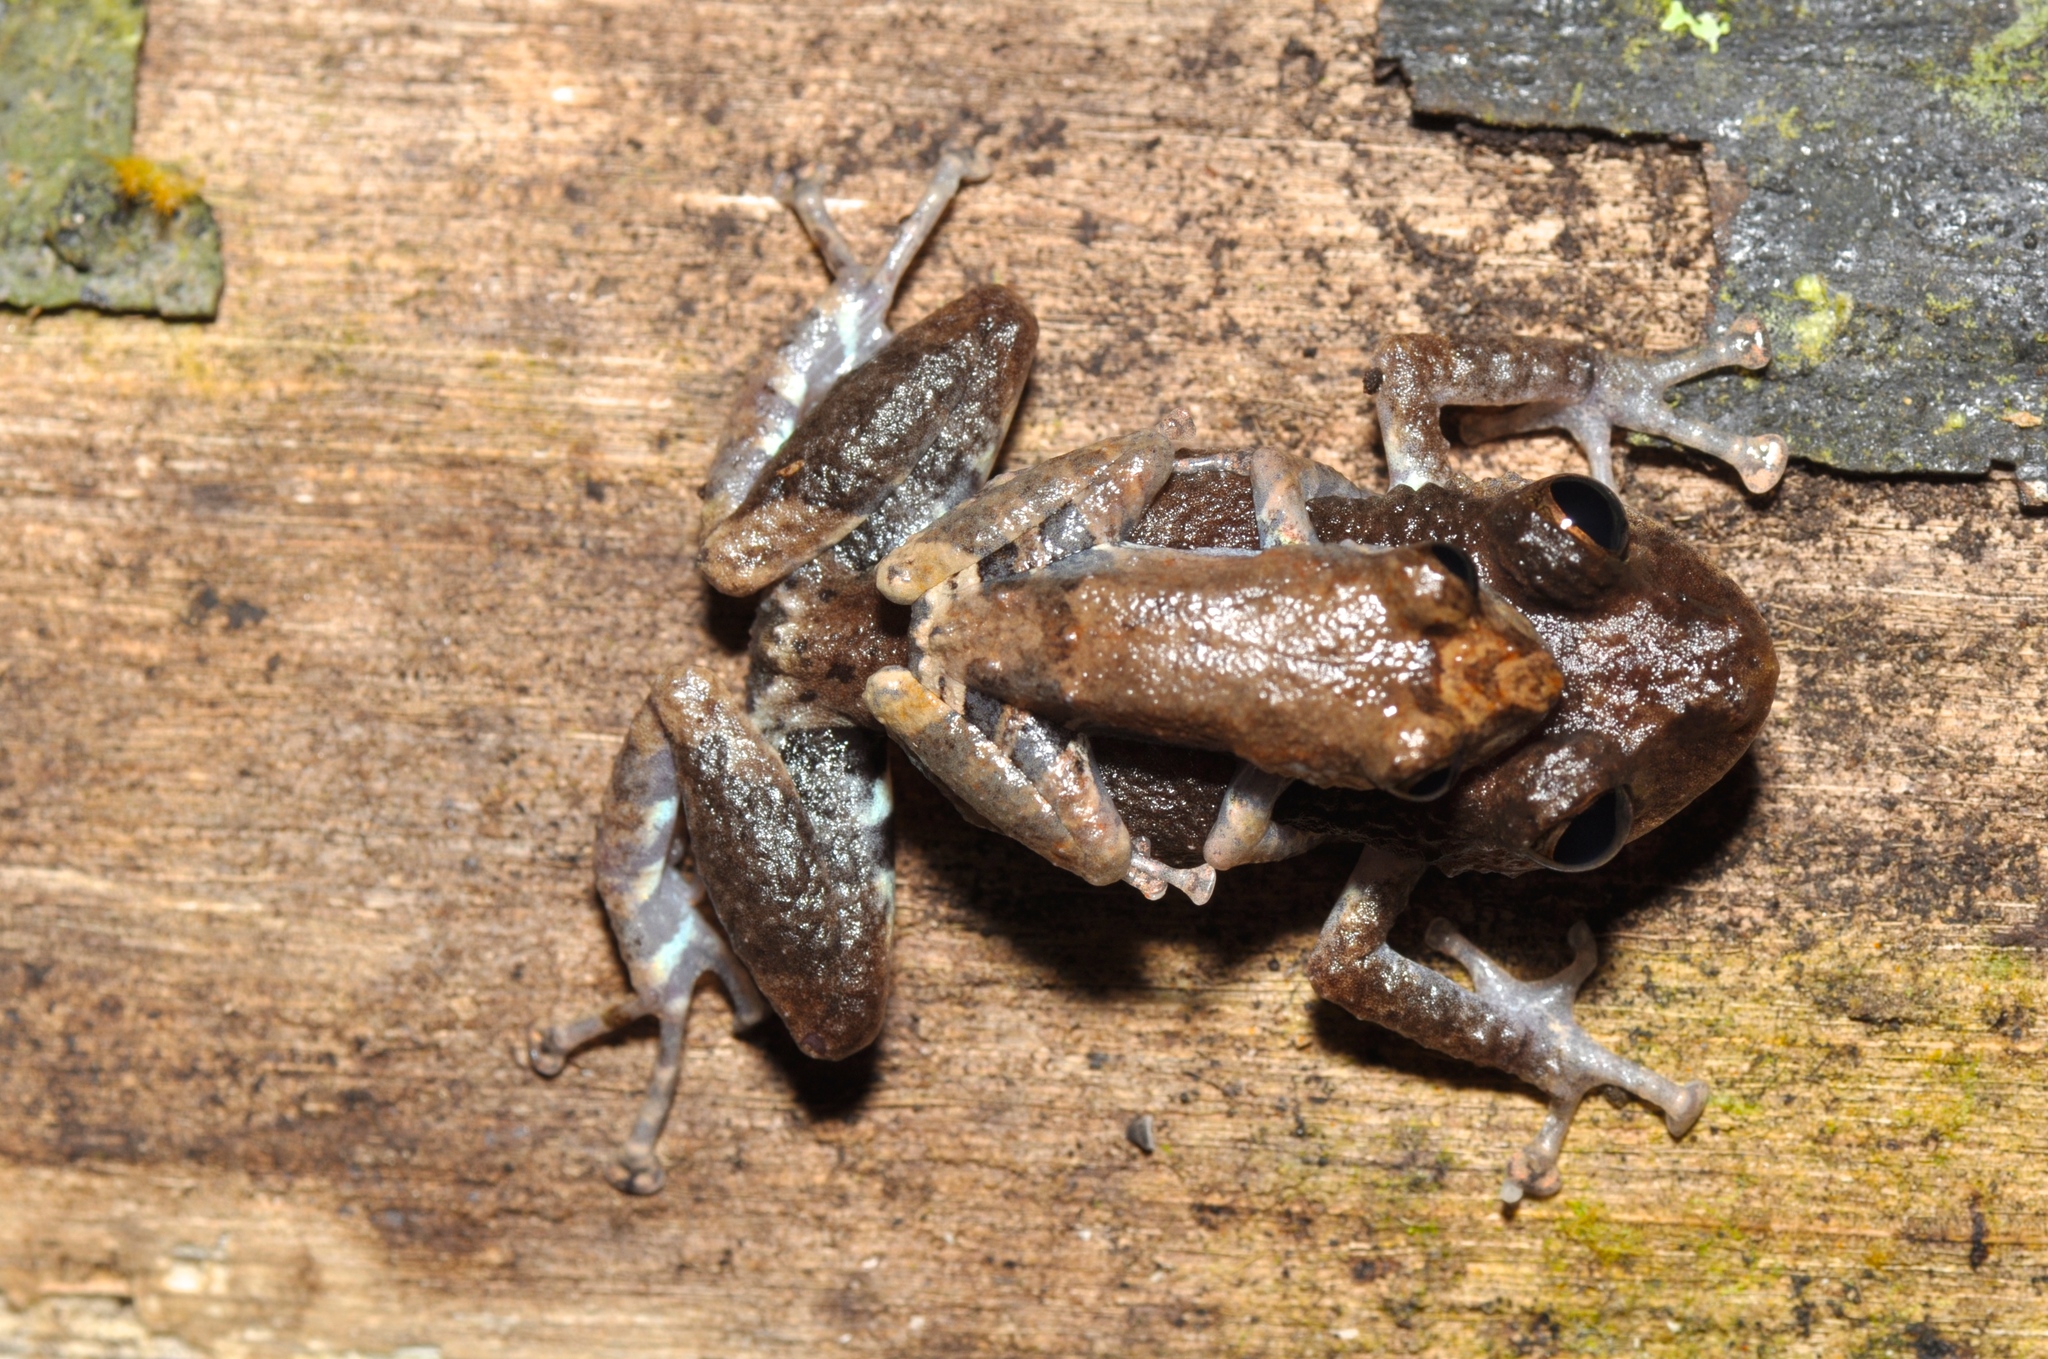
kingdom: Animalia
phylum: Chordata
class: Amphibia
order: Anura
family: Craugastoridae
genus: Pristimantis
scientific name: Pristimantis altamazonicus
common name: Amazon robber frog
